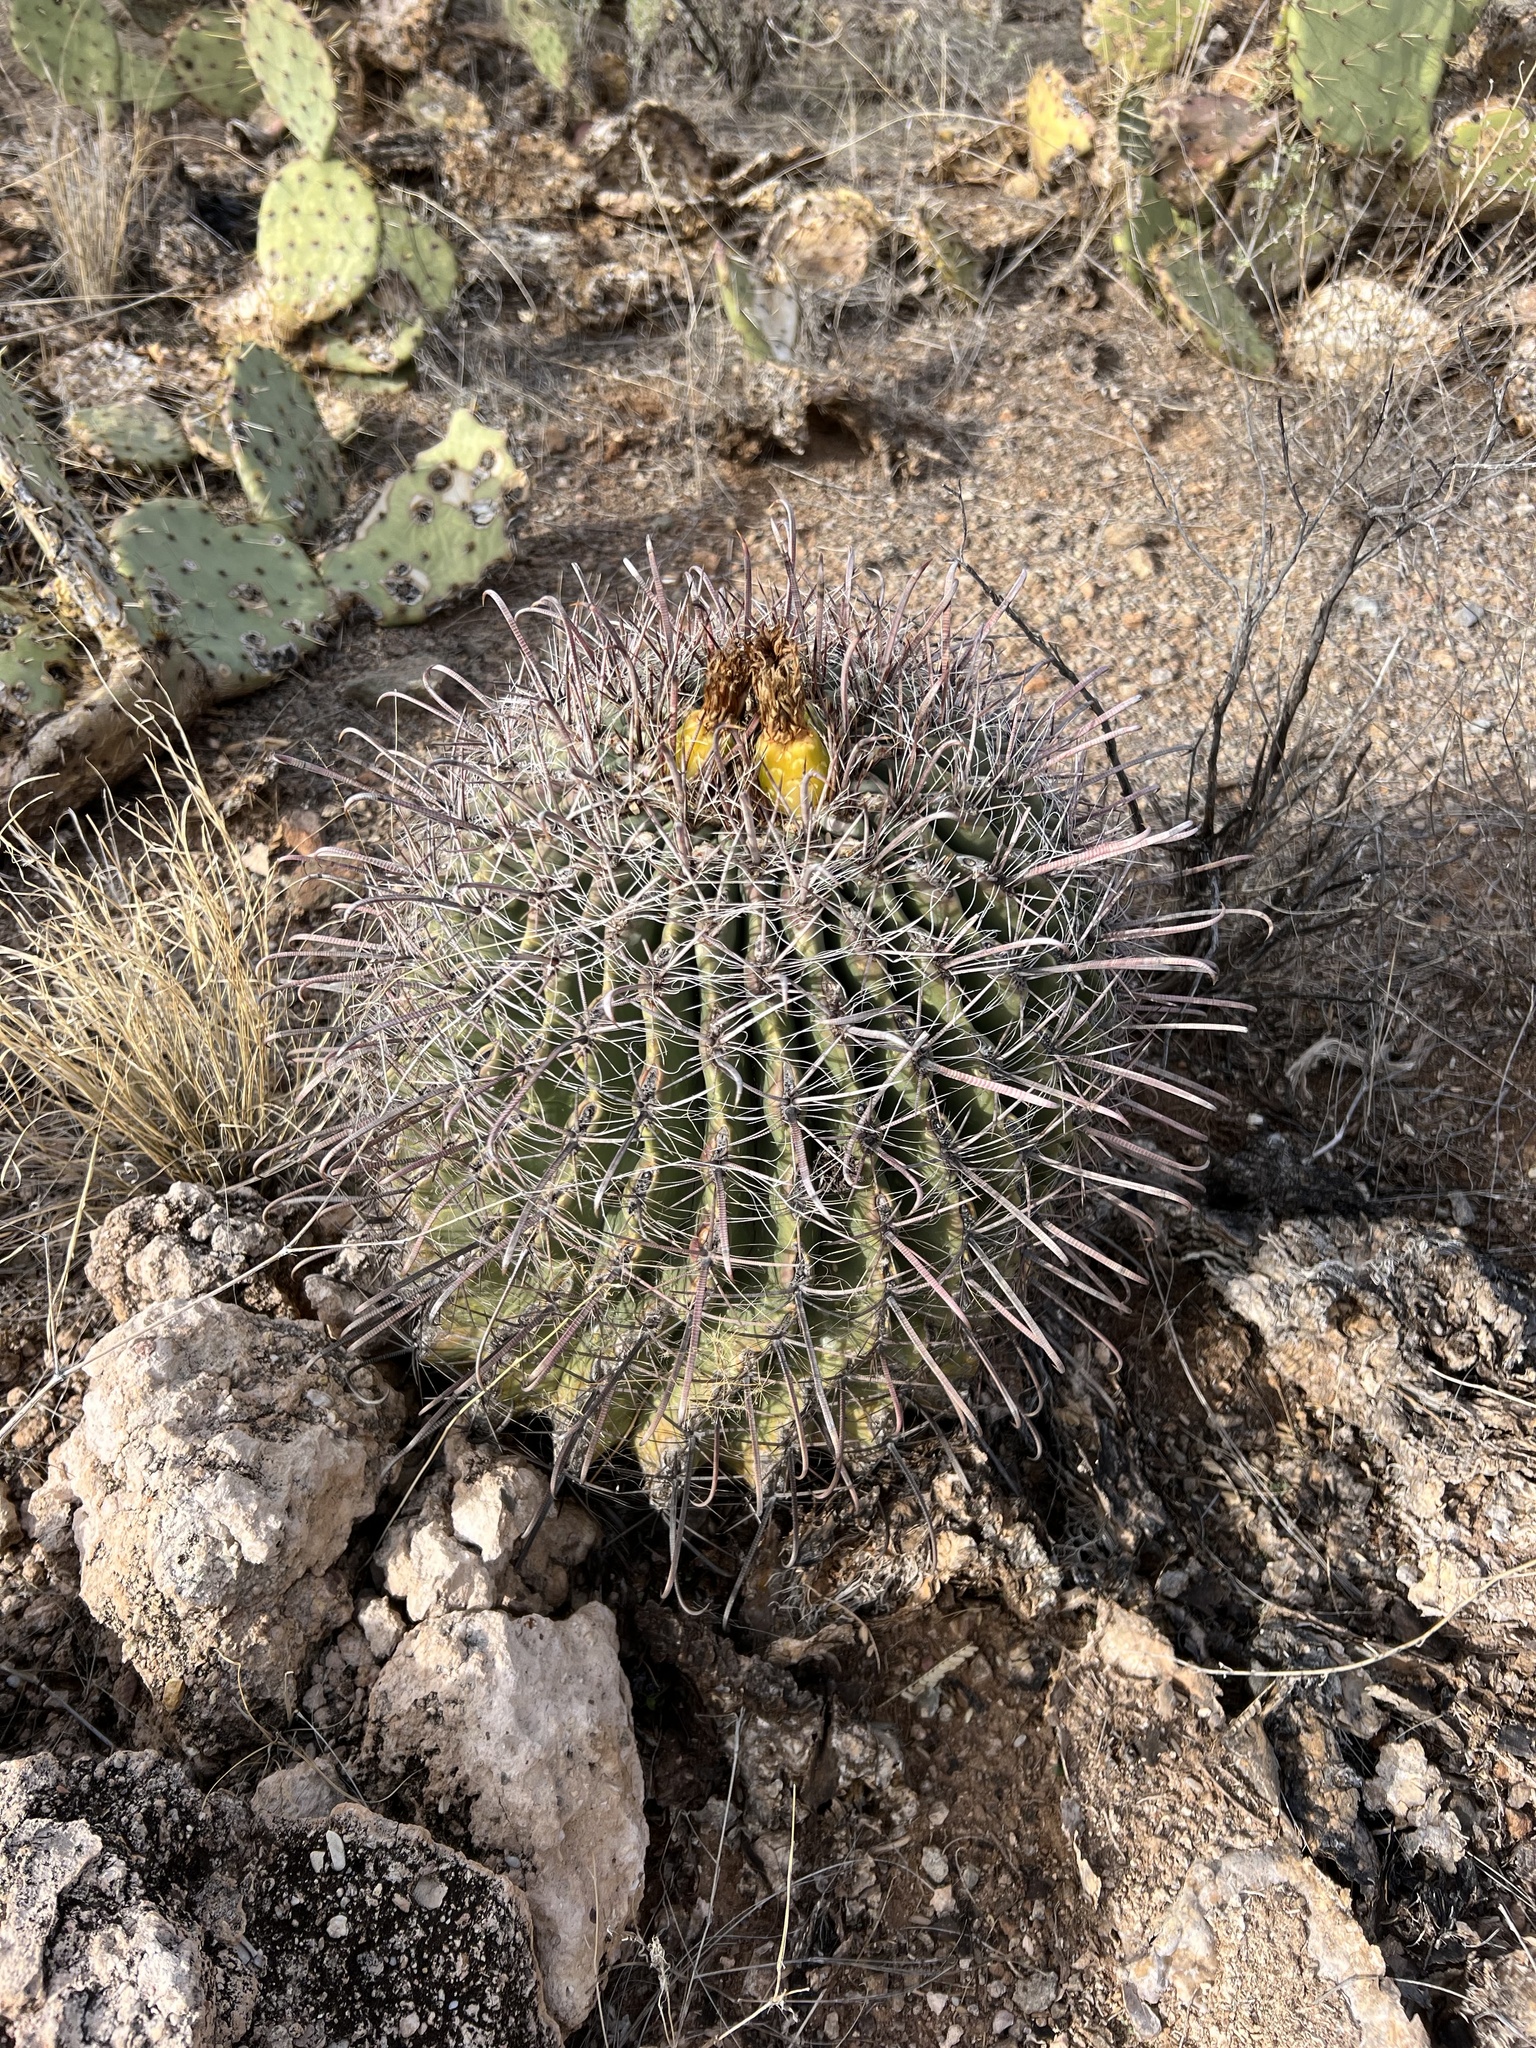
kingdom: Plantae
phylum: Tracheophyta
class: Magnoliopsida
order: Caryophyllales
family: Cactaceae
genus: Ferocactus
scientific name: Ferocactus wislizeni
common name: Candy barrel cactus
